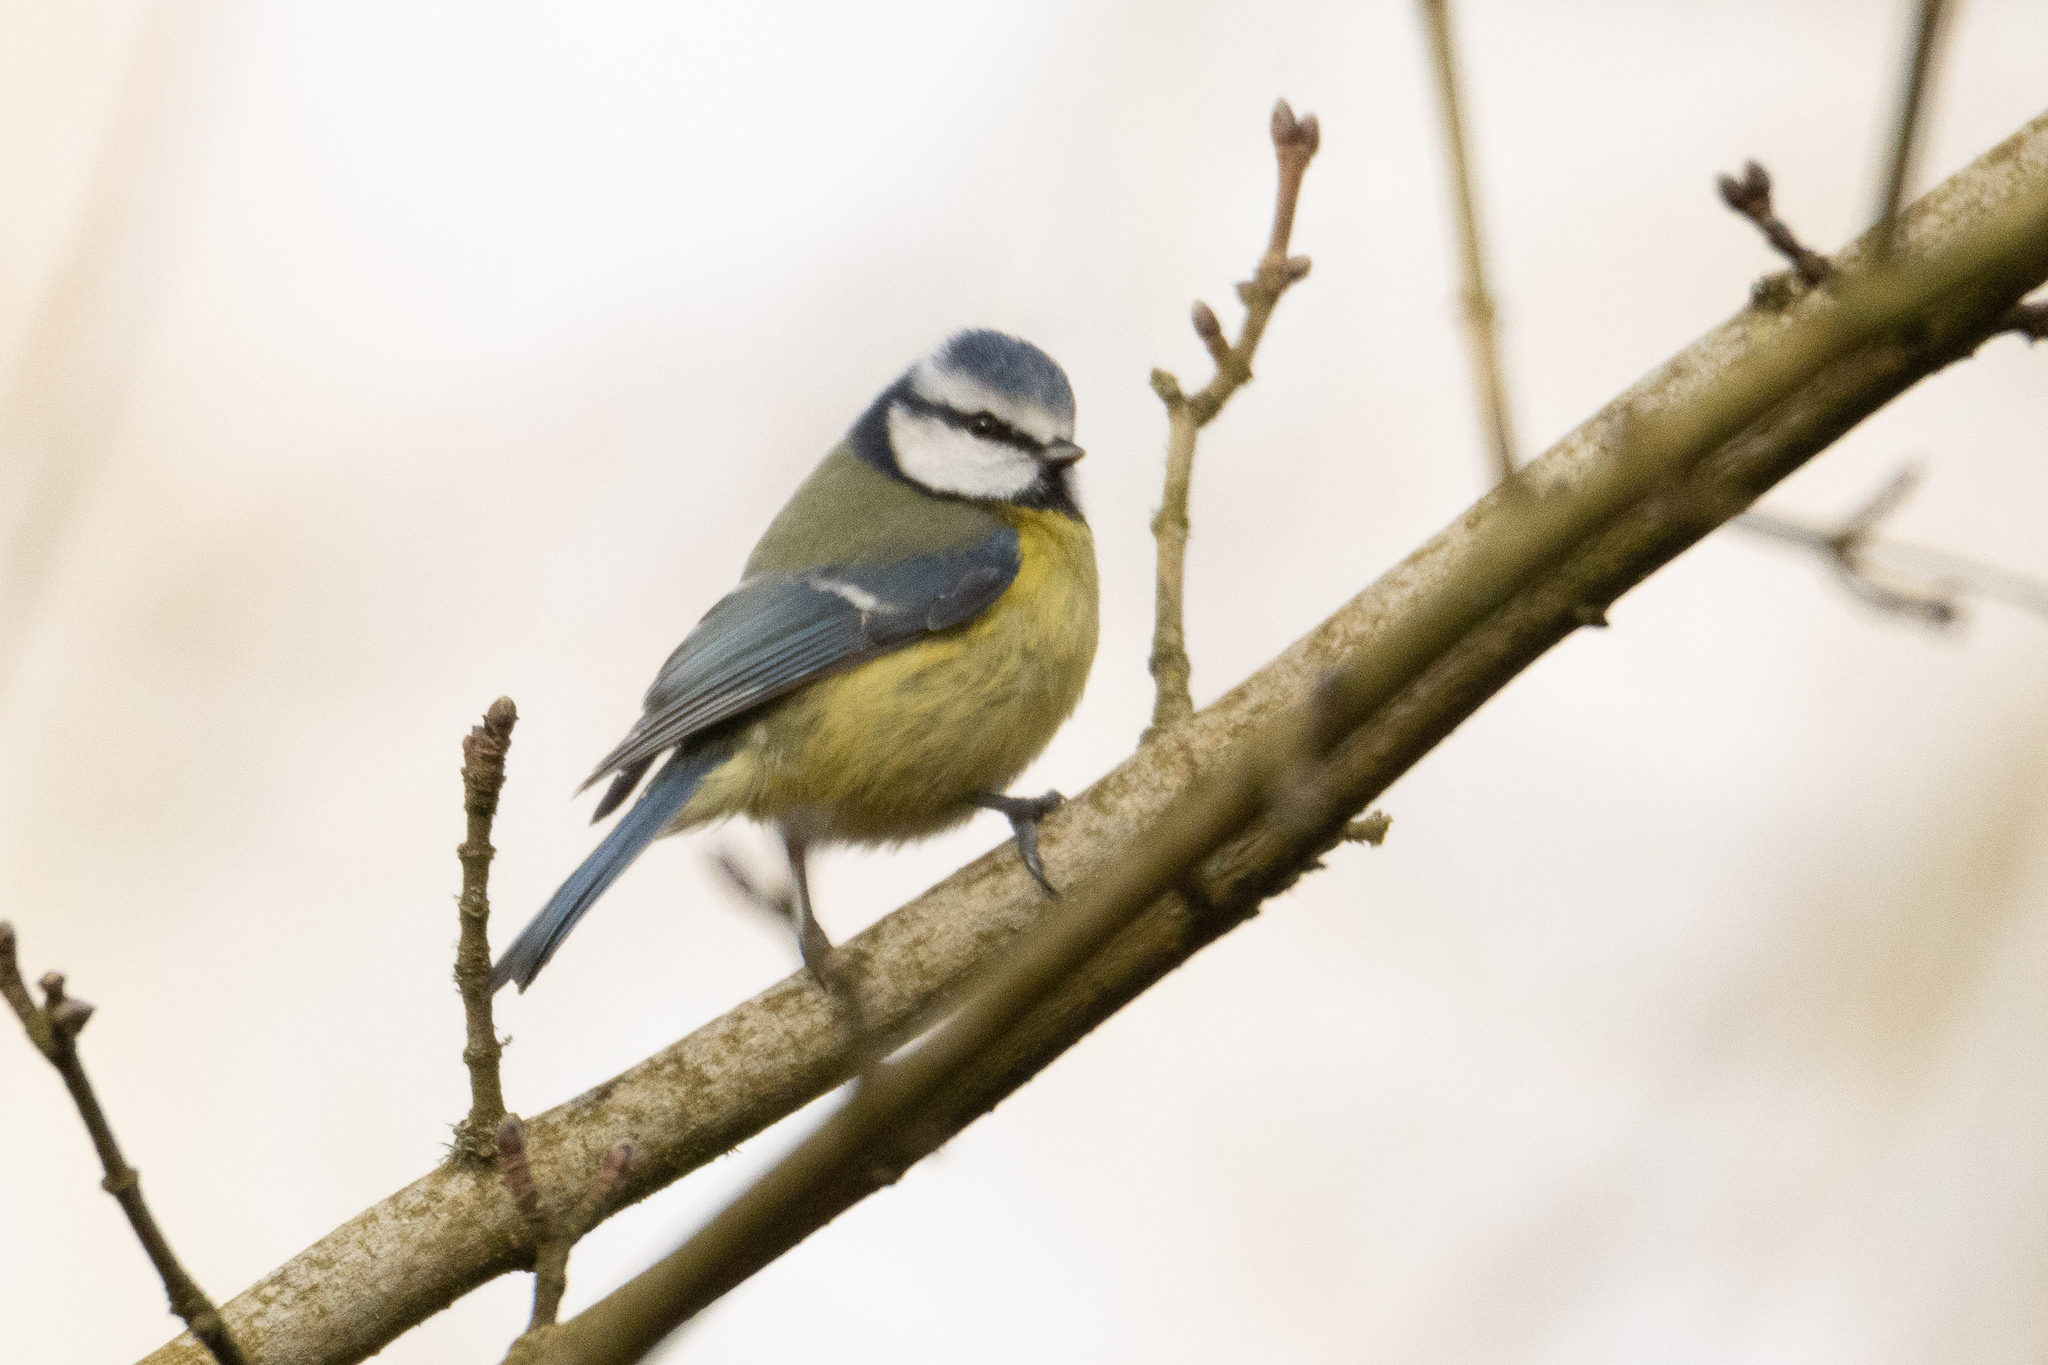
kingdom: Animalia
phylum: Chordata
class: Aves
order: Passeriformes
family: Paridae
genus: Cyanistes
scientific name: Cyanistes caeruleus
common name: Eurasian blue tit
